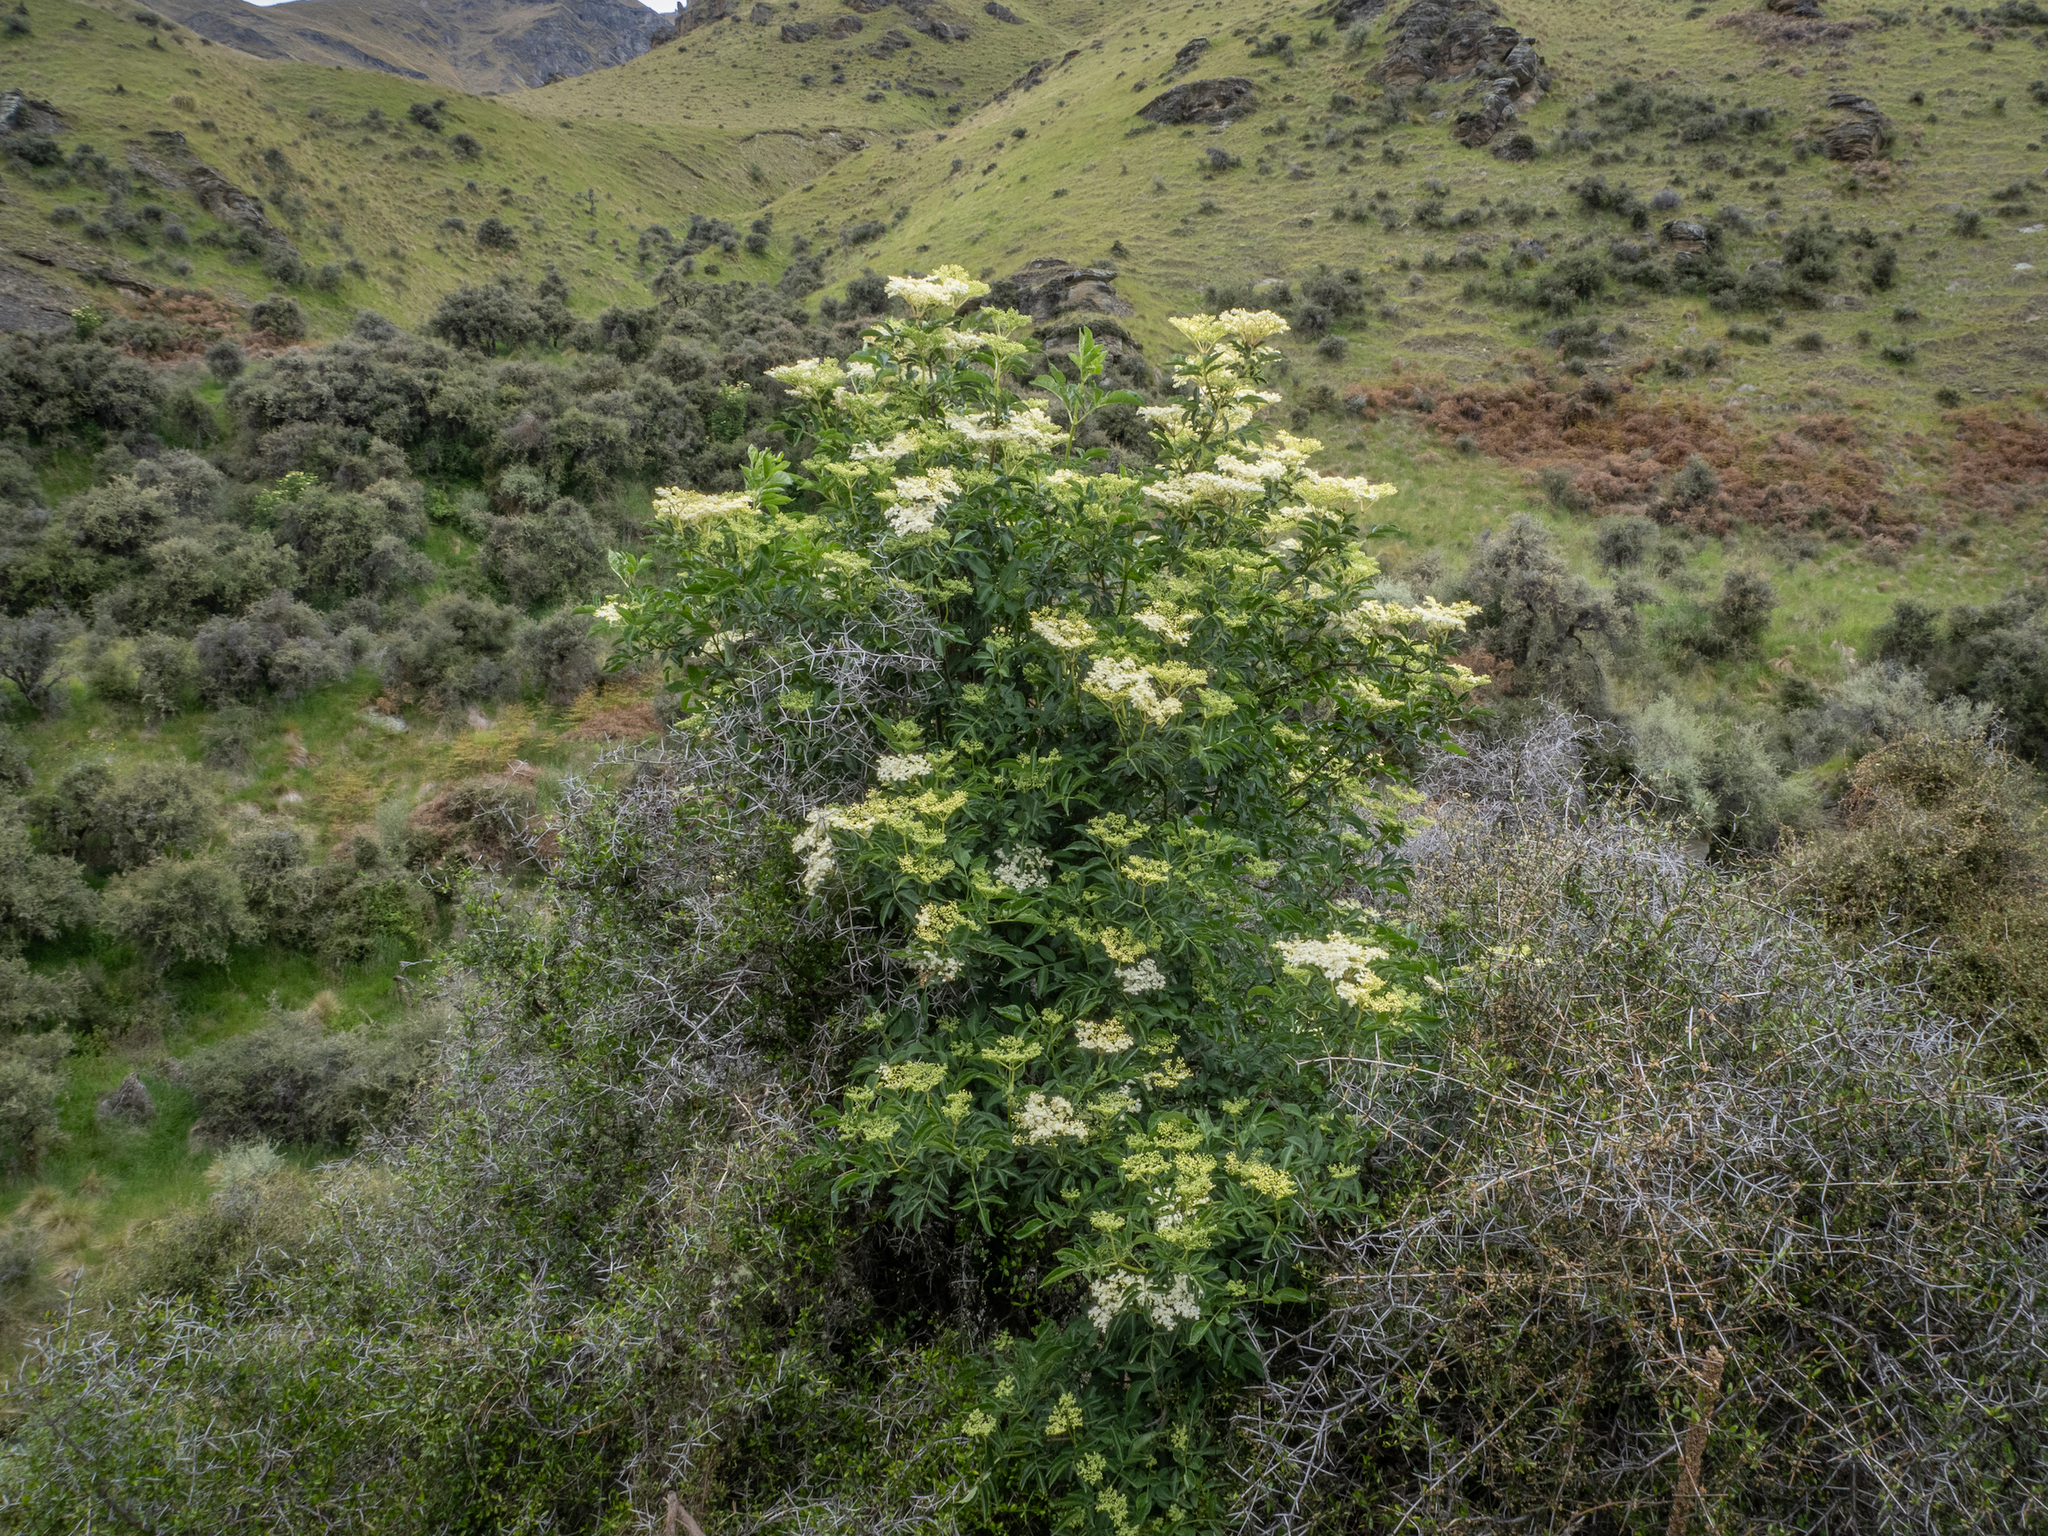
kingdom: Plantae
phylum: Tracheophyta
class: Magnoliopsida
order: Dipsacales
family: Viburnaceae
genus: Sambucus
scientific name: Sambucus nigra
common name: Elder
